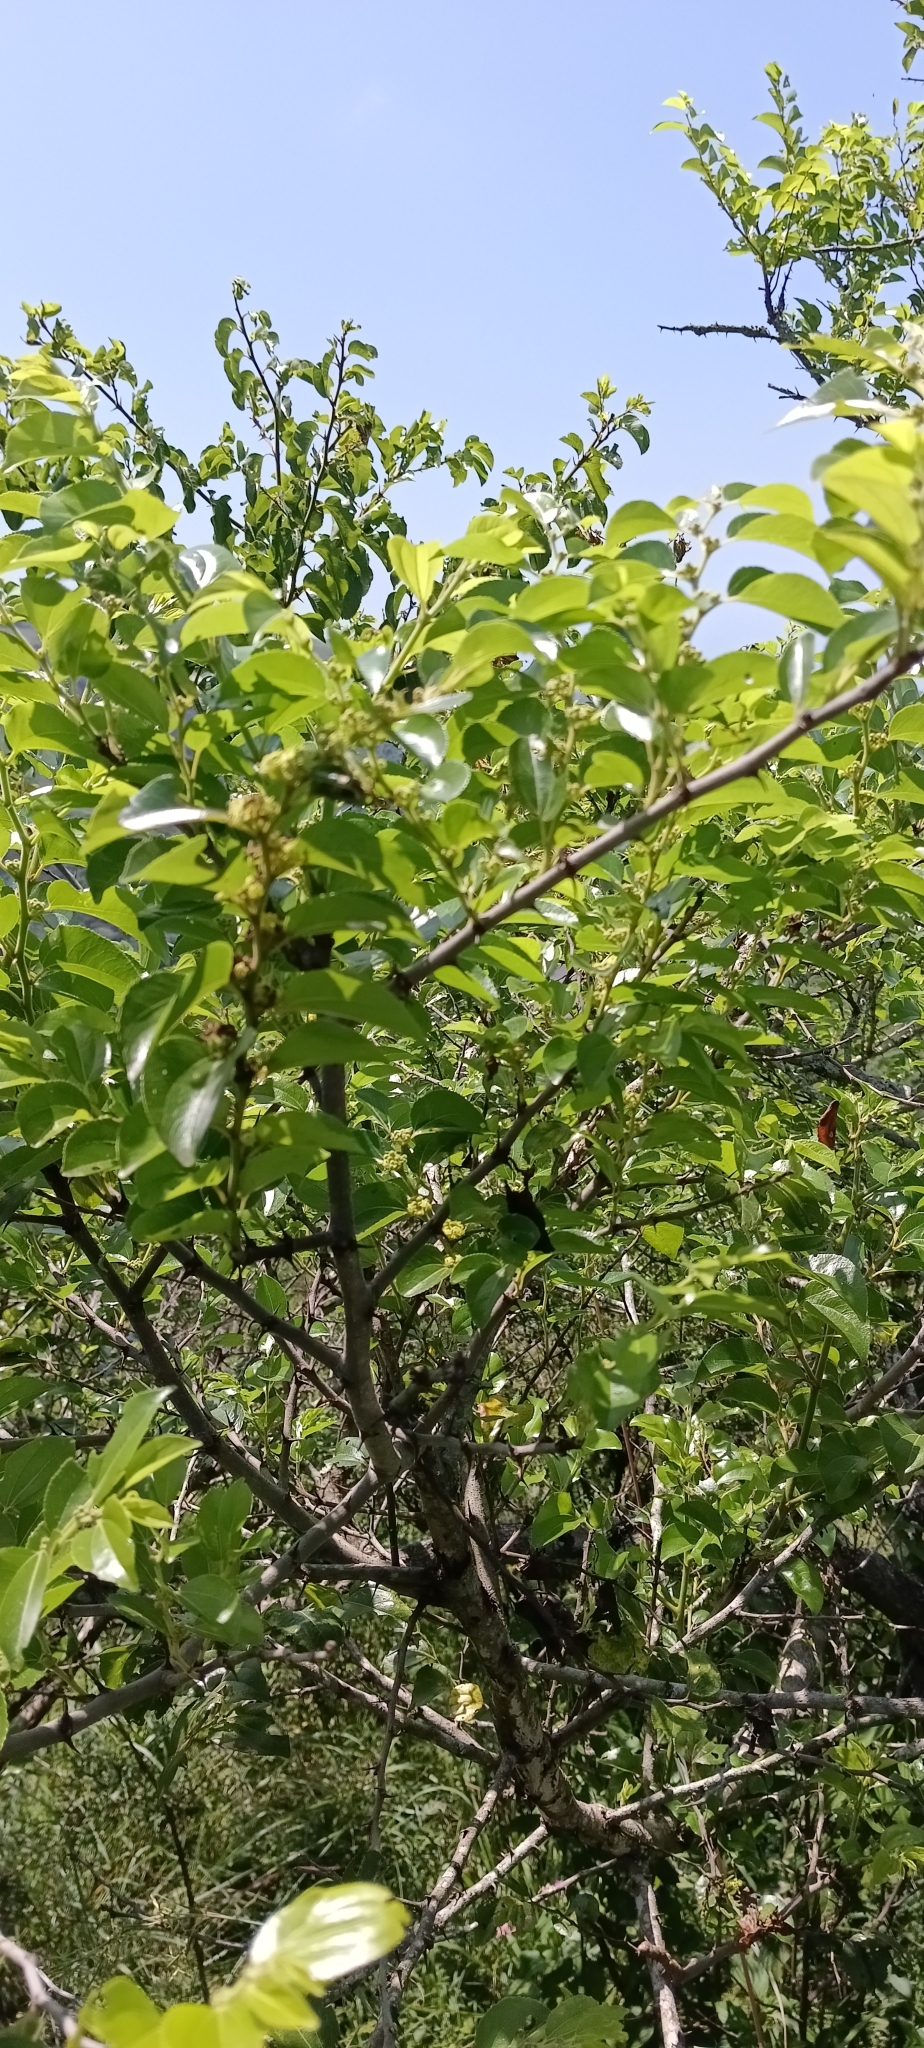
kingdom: Plantae
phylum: Tracheophyta
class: Magnoliopsida
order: Rosales
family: Rhamnaceae
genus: Ziziphus
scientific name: Ziziphus mucronata
